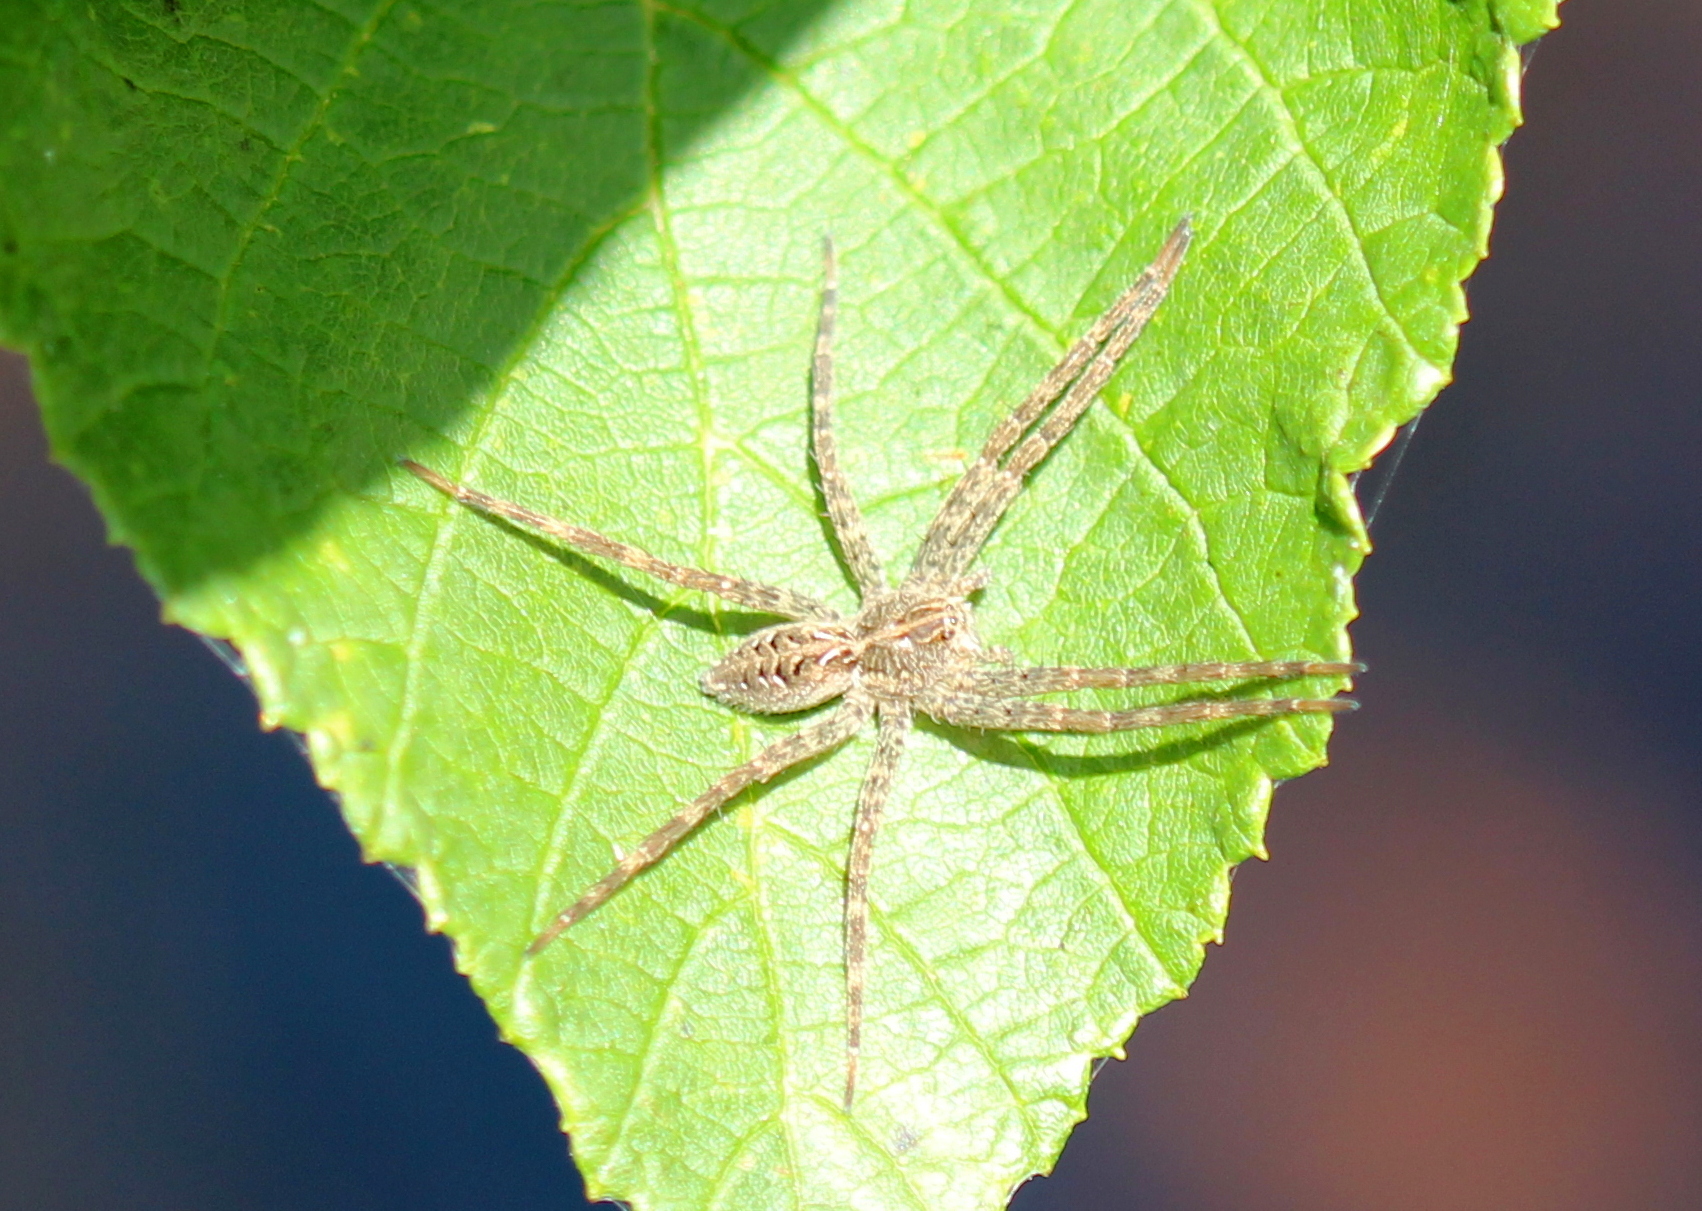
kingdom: Animalia
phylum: Arthropoda
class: Arachnida
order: Araneae
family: Pisauridae
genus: Dolomedes
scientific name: Dolomedes scriptus
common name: Striped fishing spider
